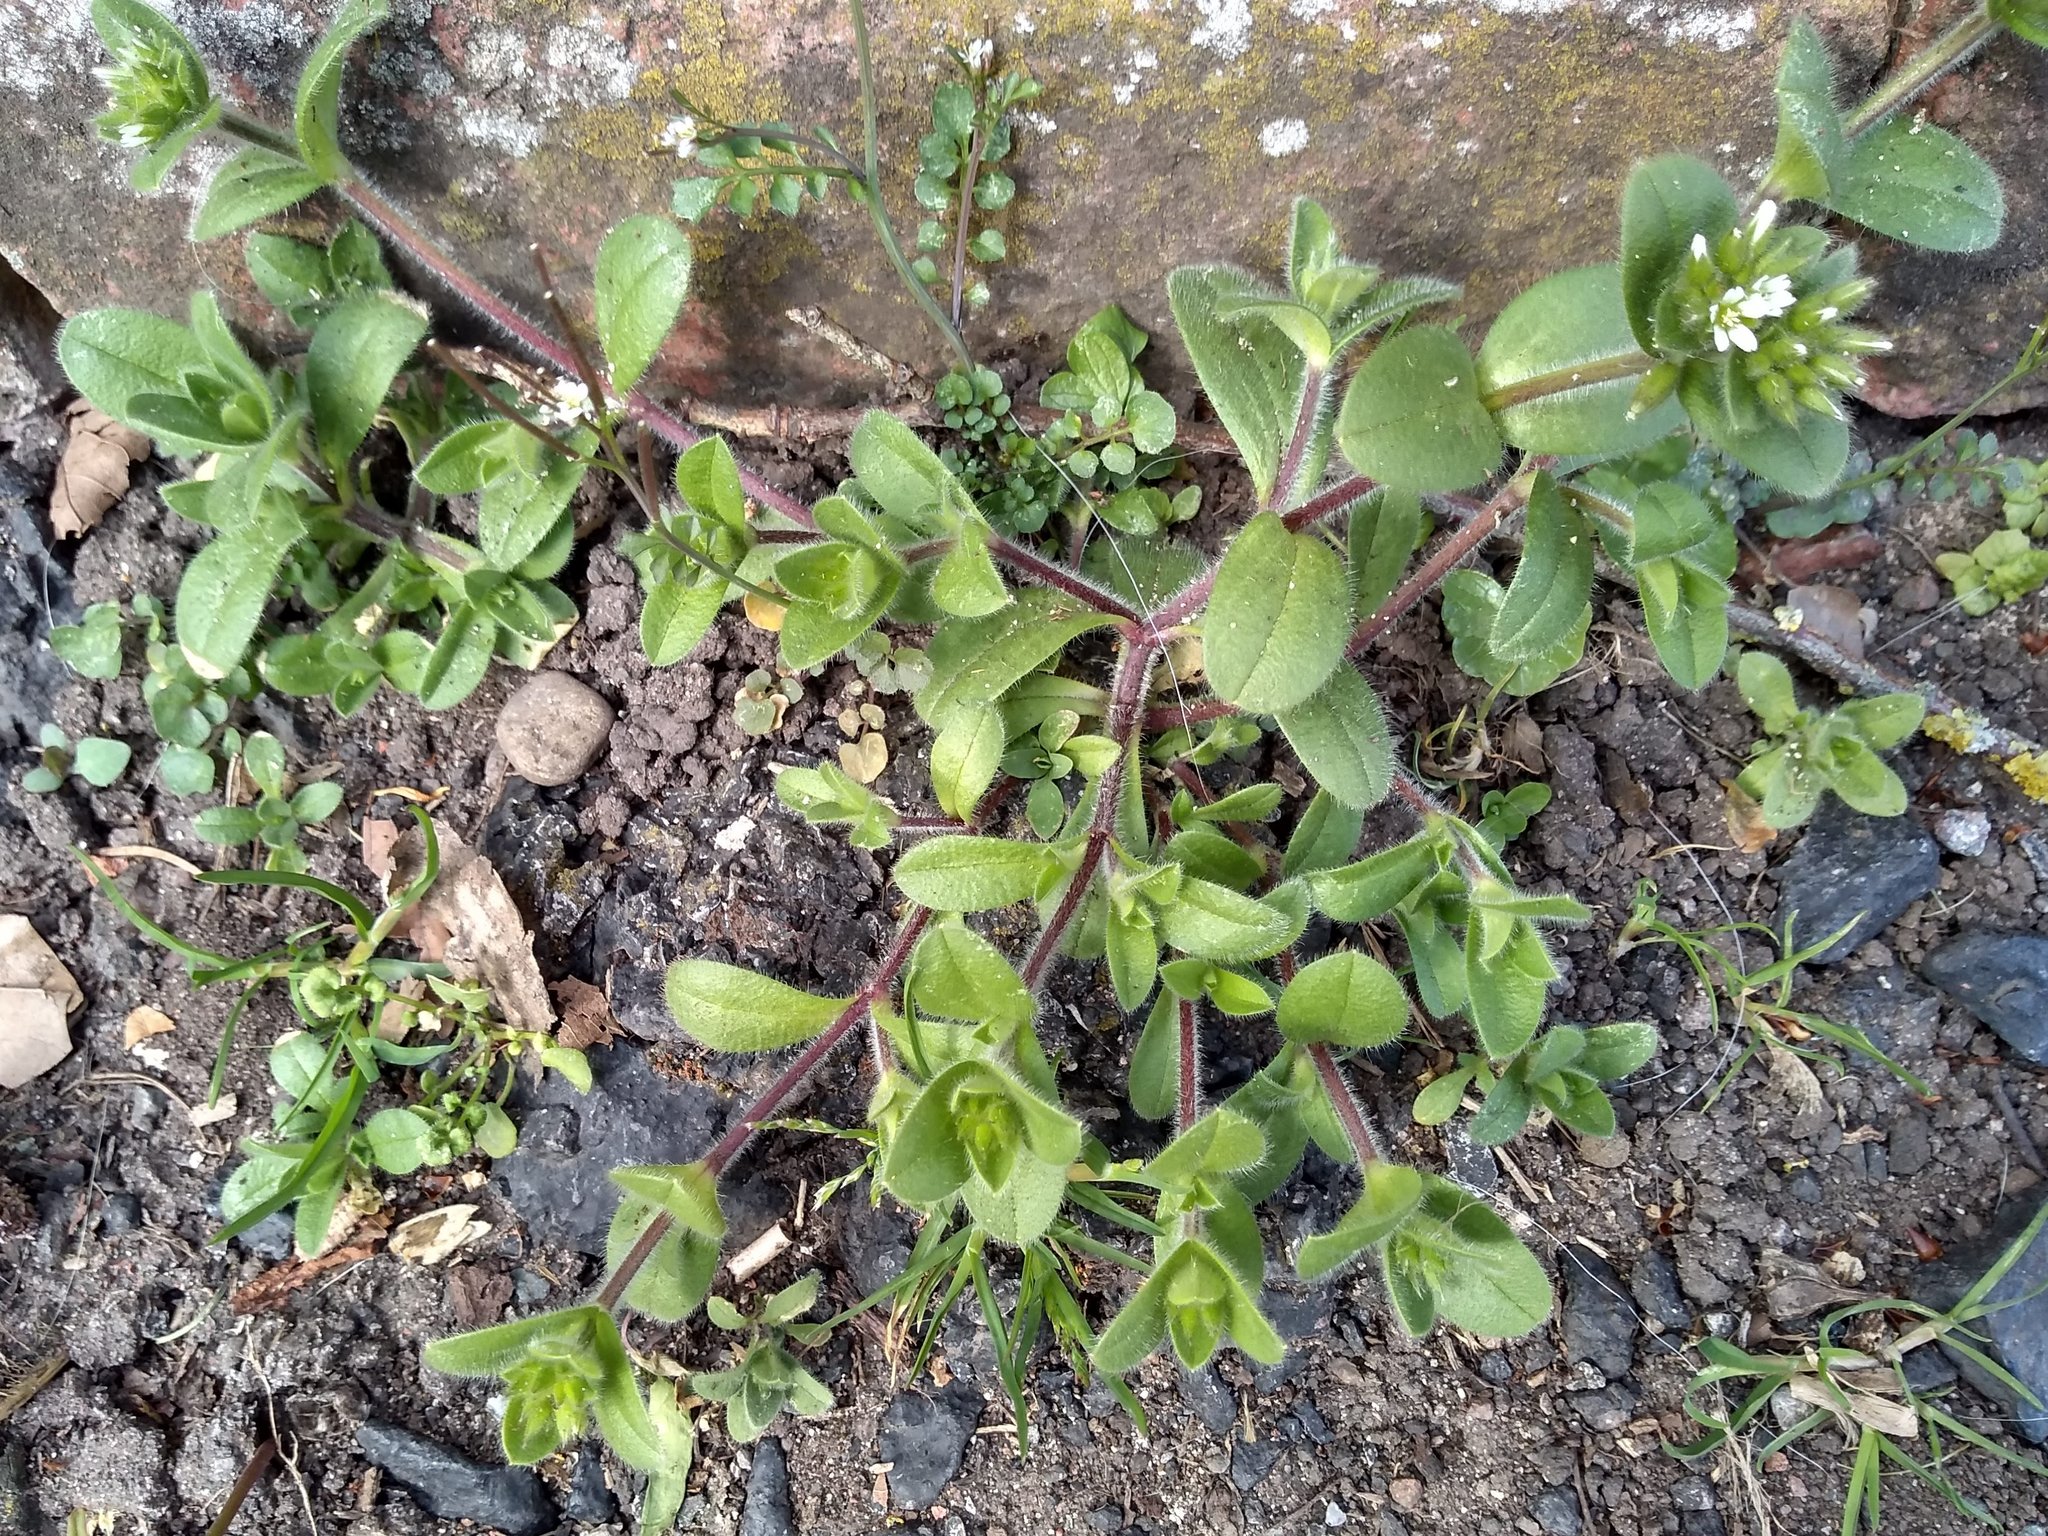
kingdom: Plantae
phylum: Tracheophyta
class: Magnoliopsida
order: Caryophyllales
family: Caryophyllaceae
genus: Cerastium
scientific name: Cerastium glomeratum
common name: Sticky chickweed
